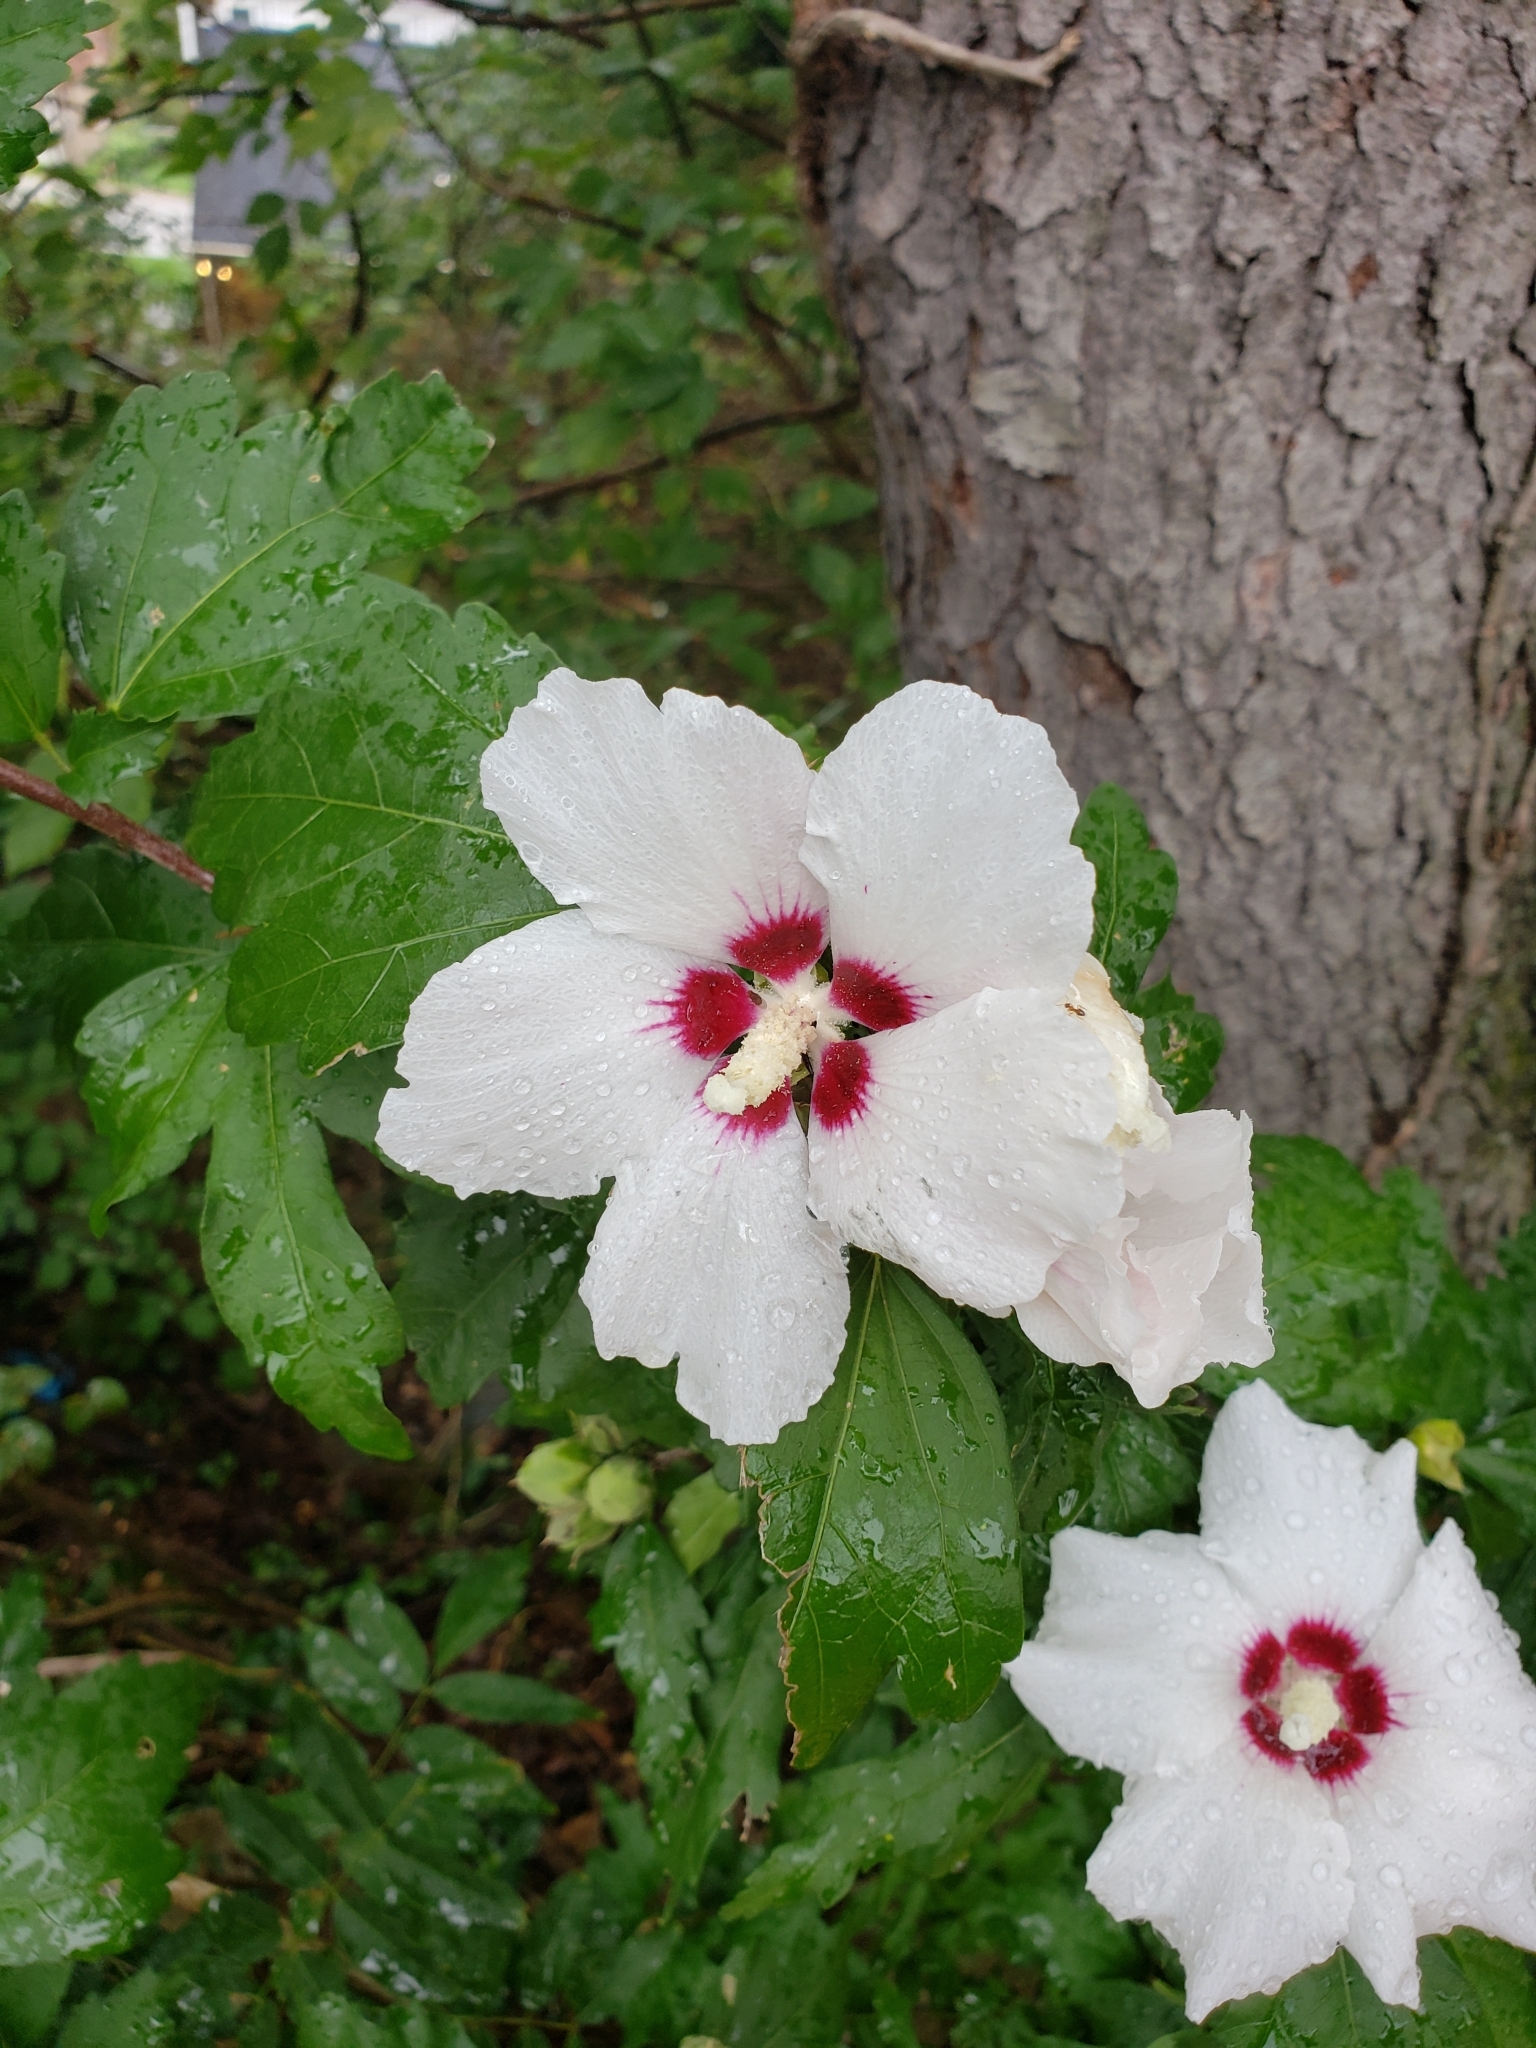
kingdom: Plantae
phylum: Tracheophyta
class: Magnoliopsida
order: Malvales
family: Malvaceae
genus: Hibiscus
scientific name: Hibiscus syriacus
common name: Syrian ketmia
